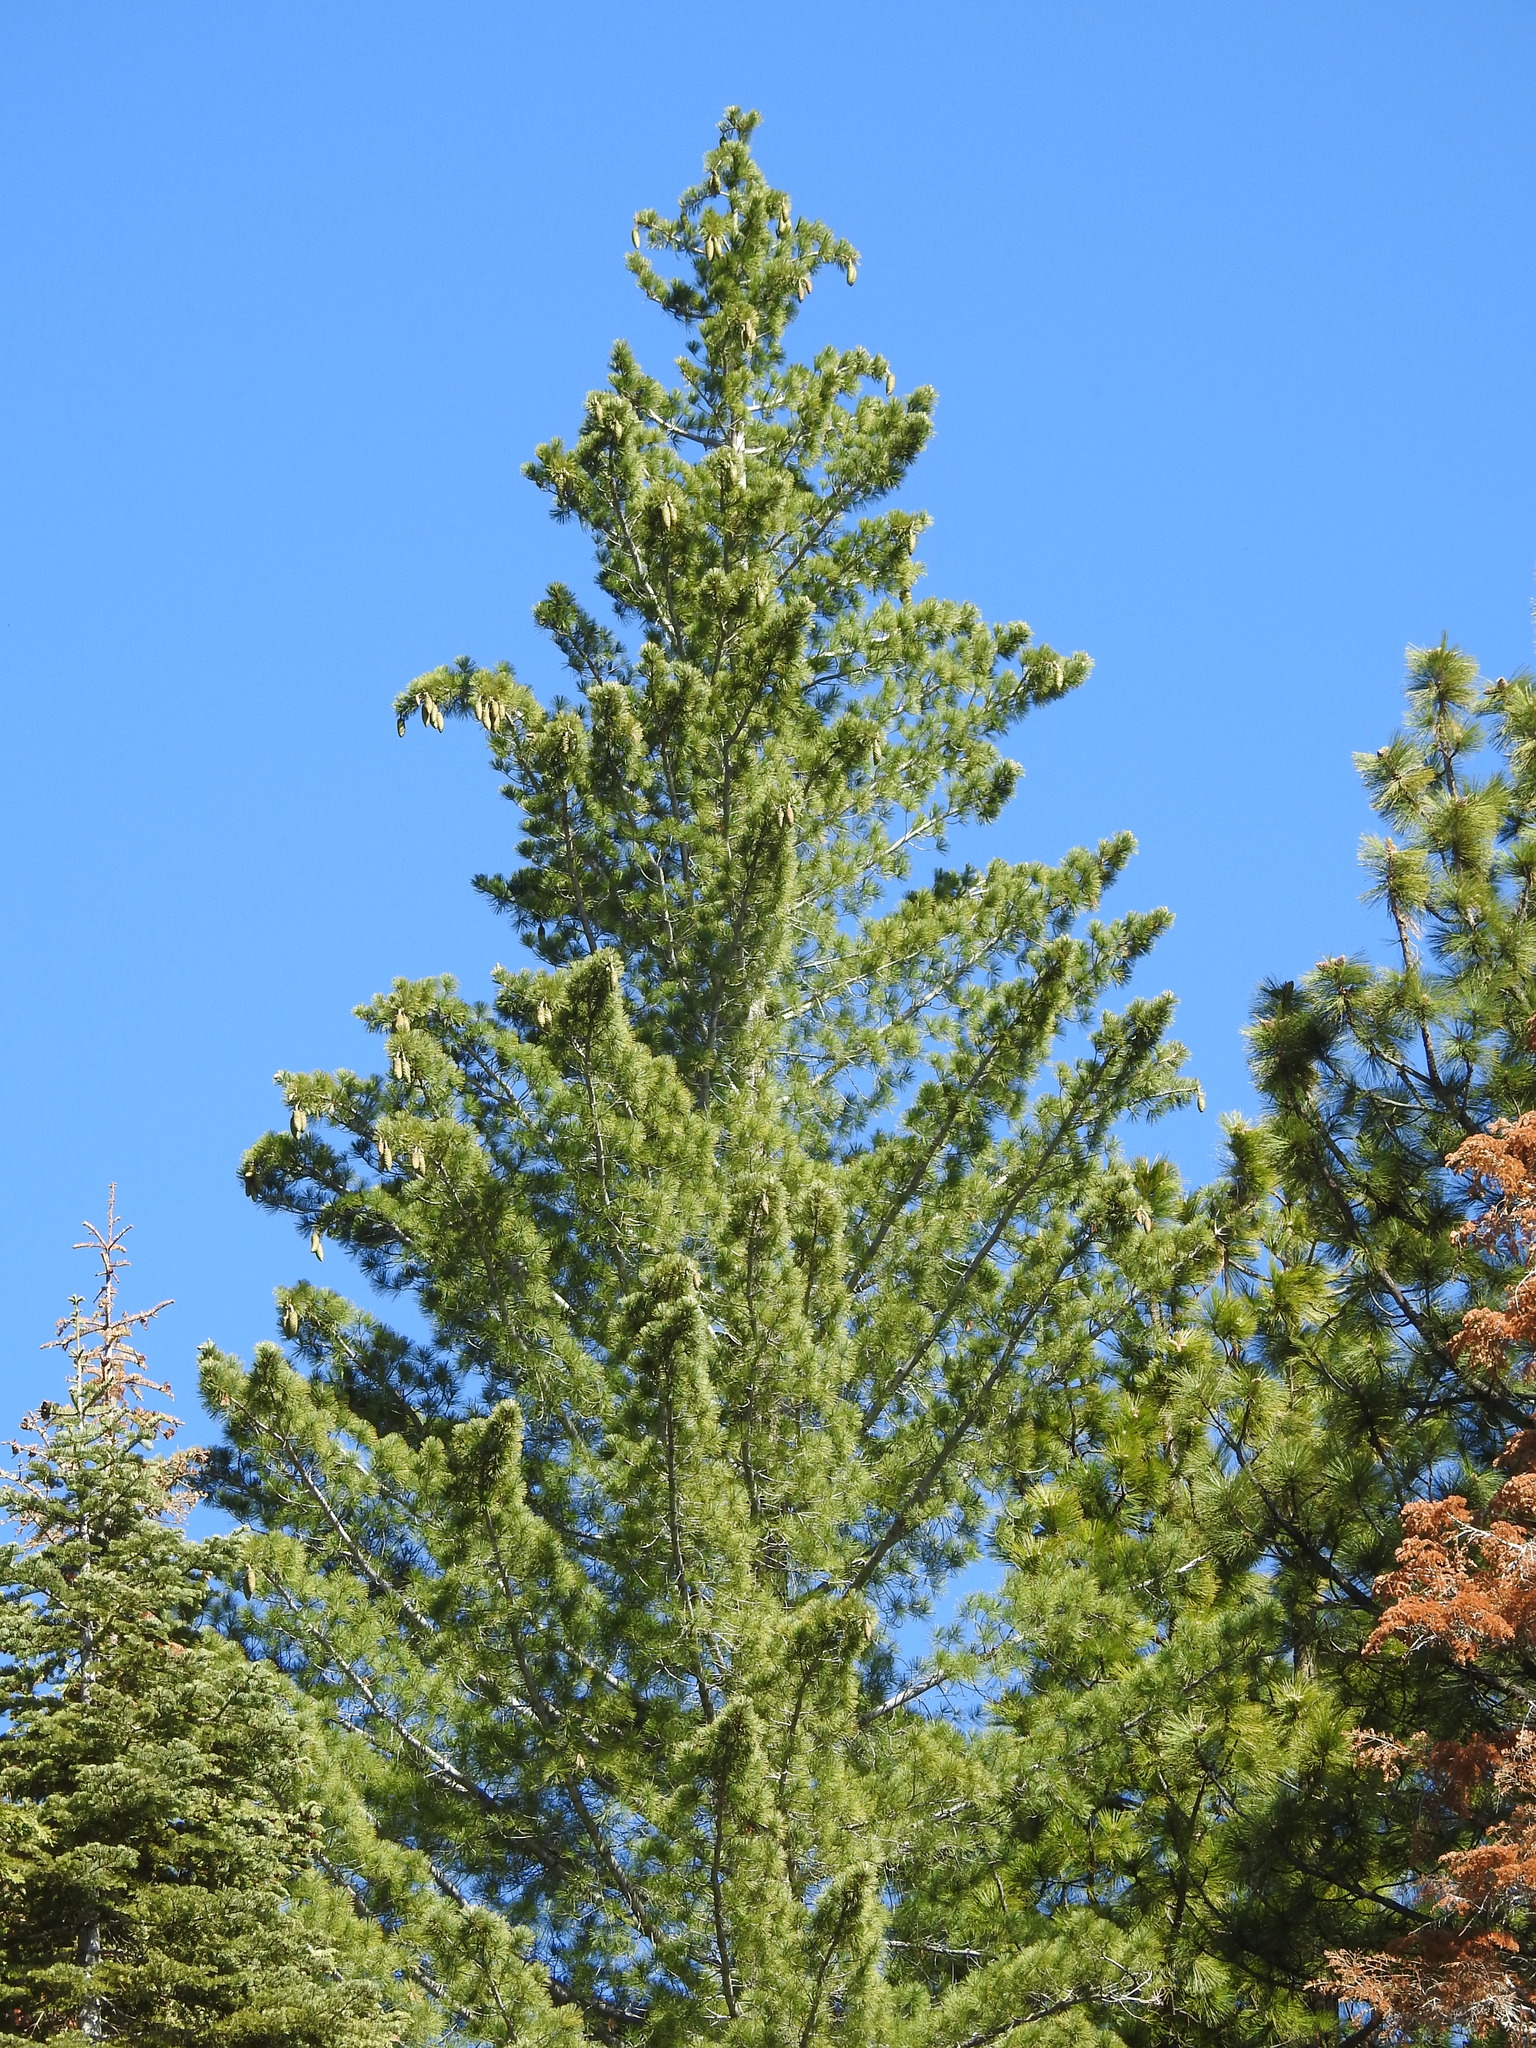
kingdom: Plantae
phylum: Tracheophyta
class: Pinopsida
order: Pinales
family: Pinaceae
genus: Pinus
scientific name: Pinus lambertiana
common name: Sugar pine
